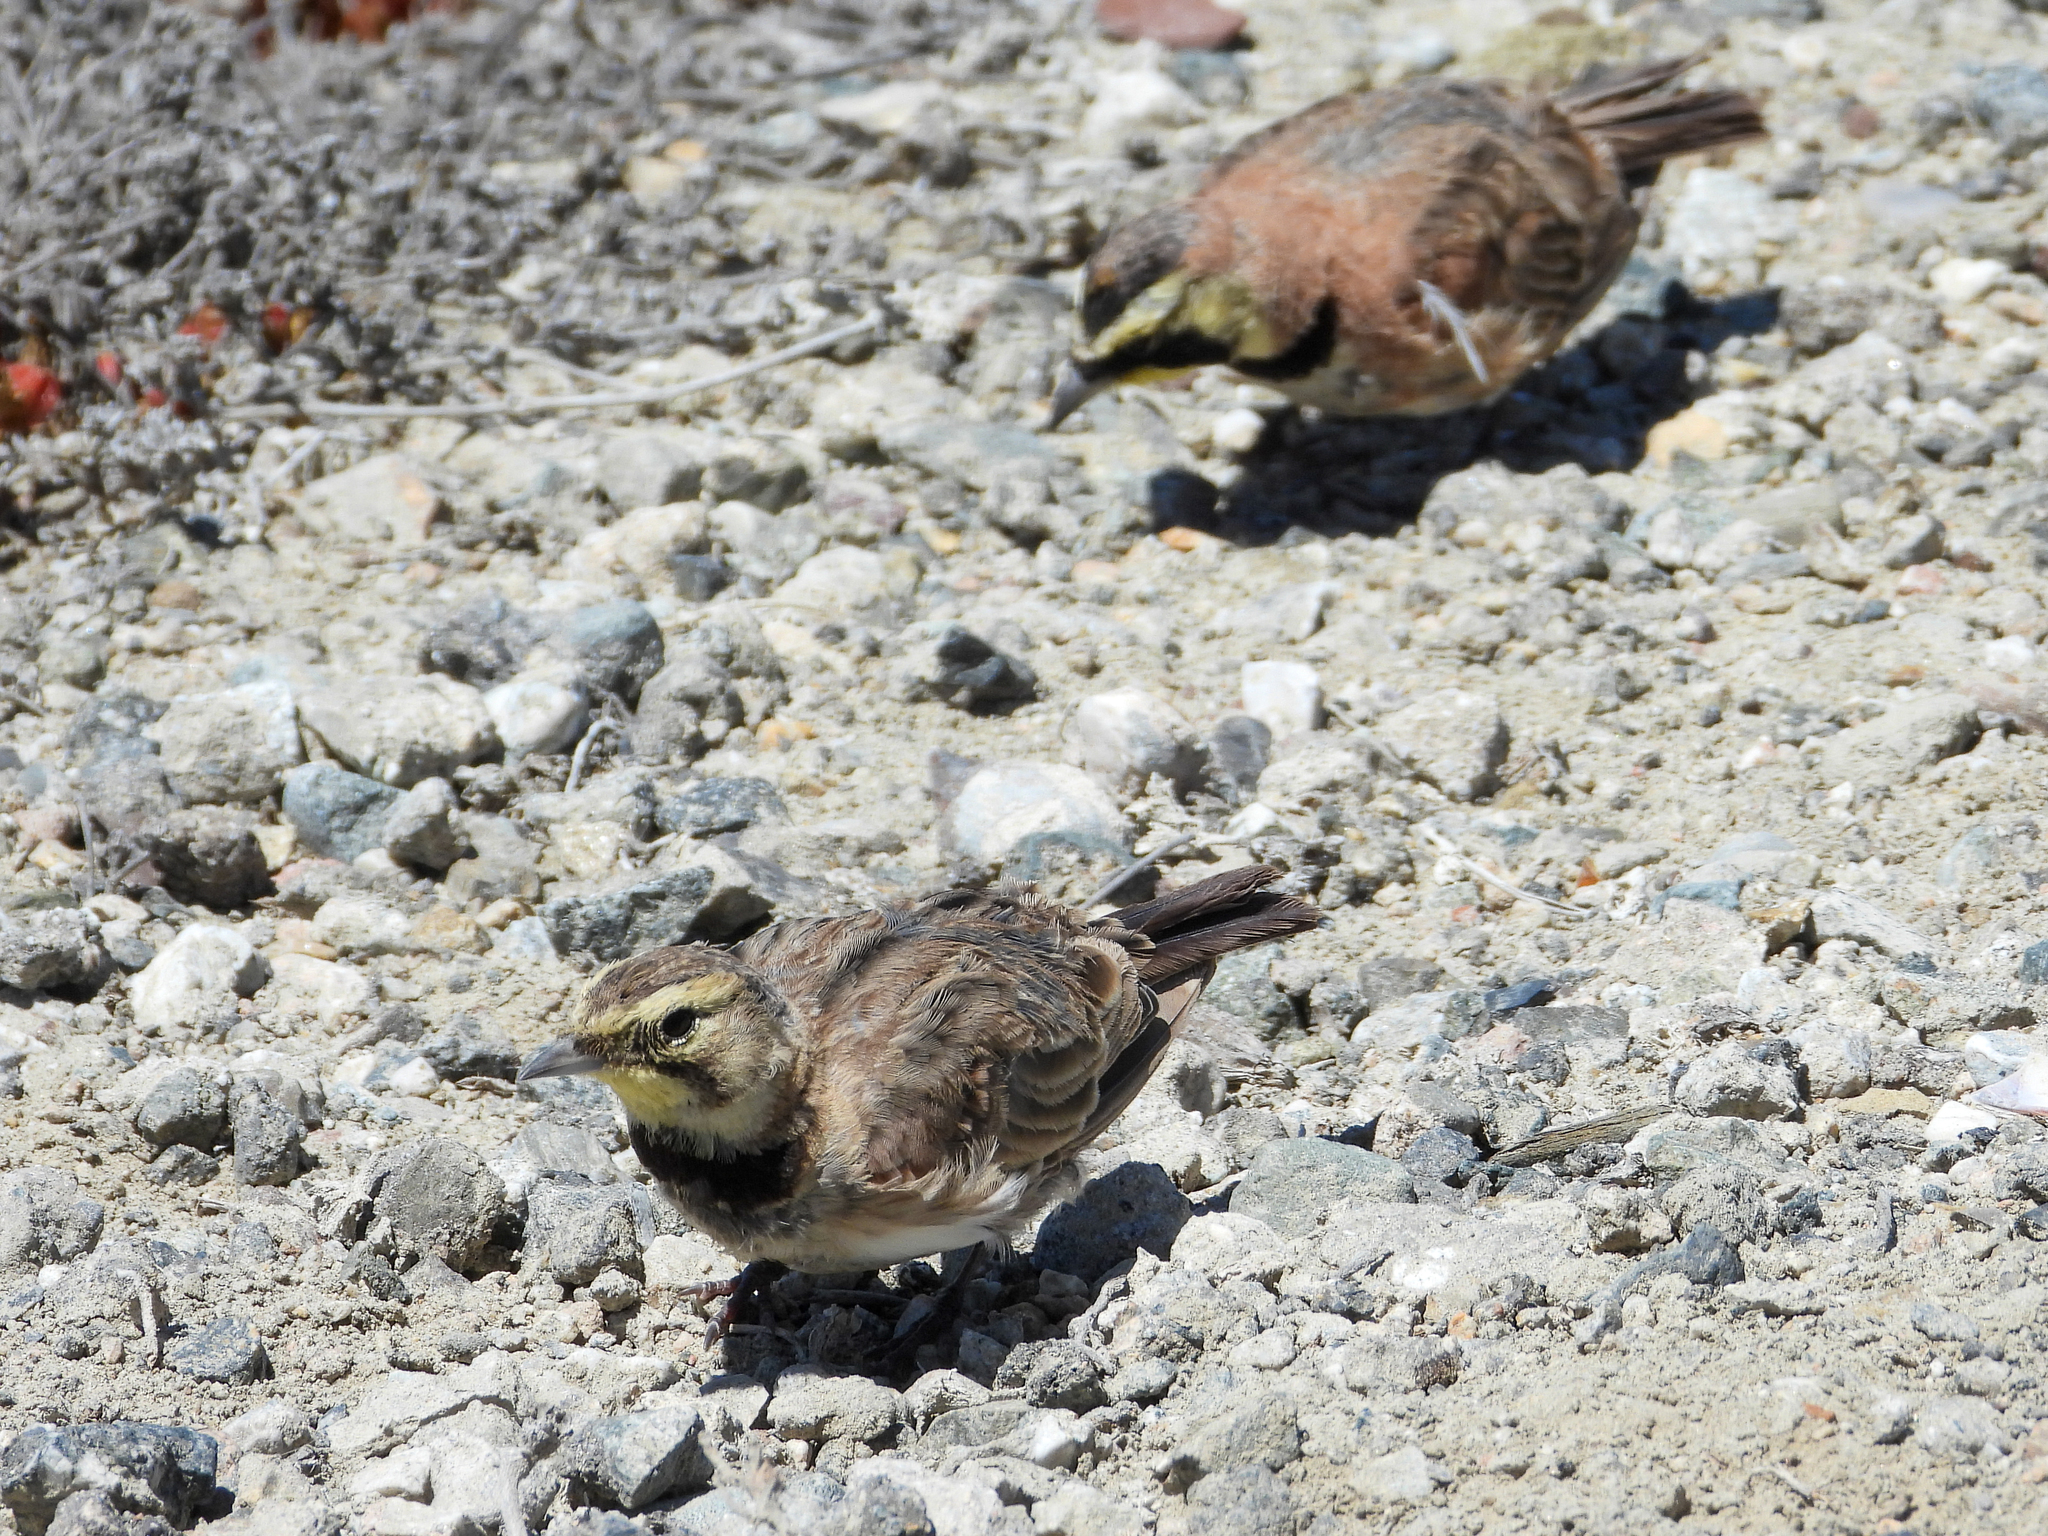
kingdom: Animalia
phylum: Chordata
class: Aves
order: Passeriformes
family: Alaudidae
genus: Eremophila
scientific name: Eremophila alpestris
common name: Horned lark
